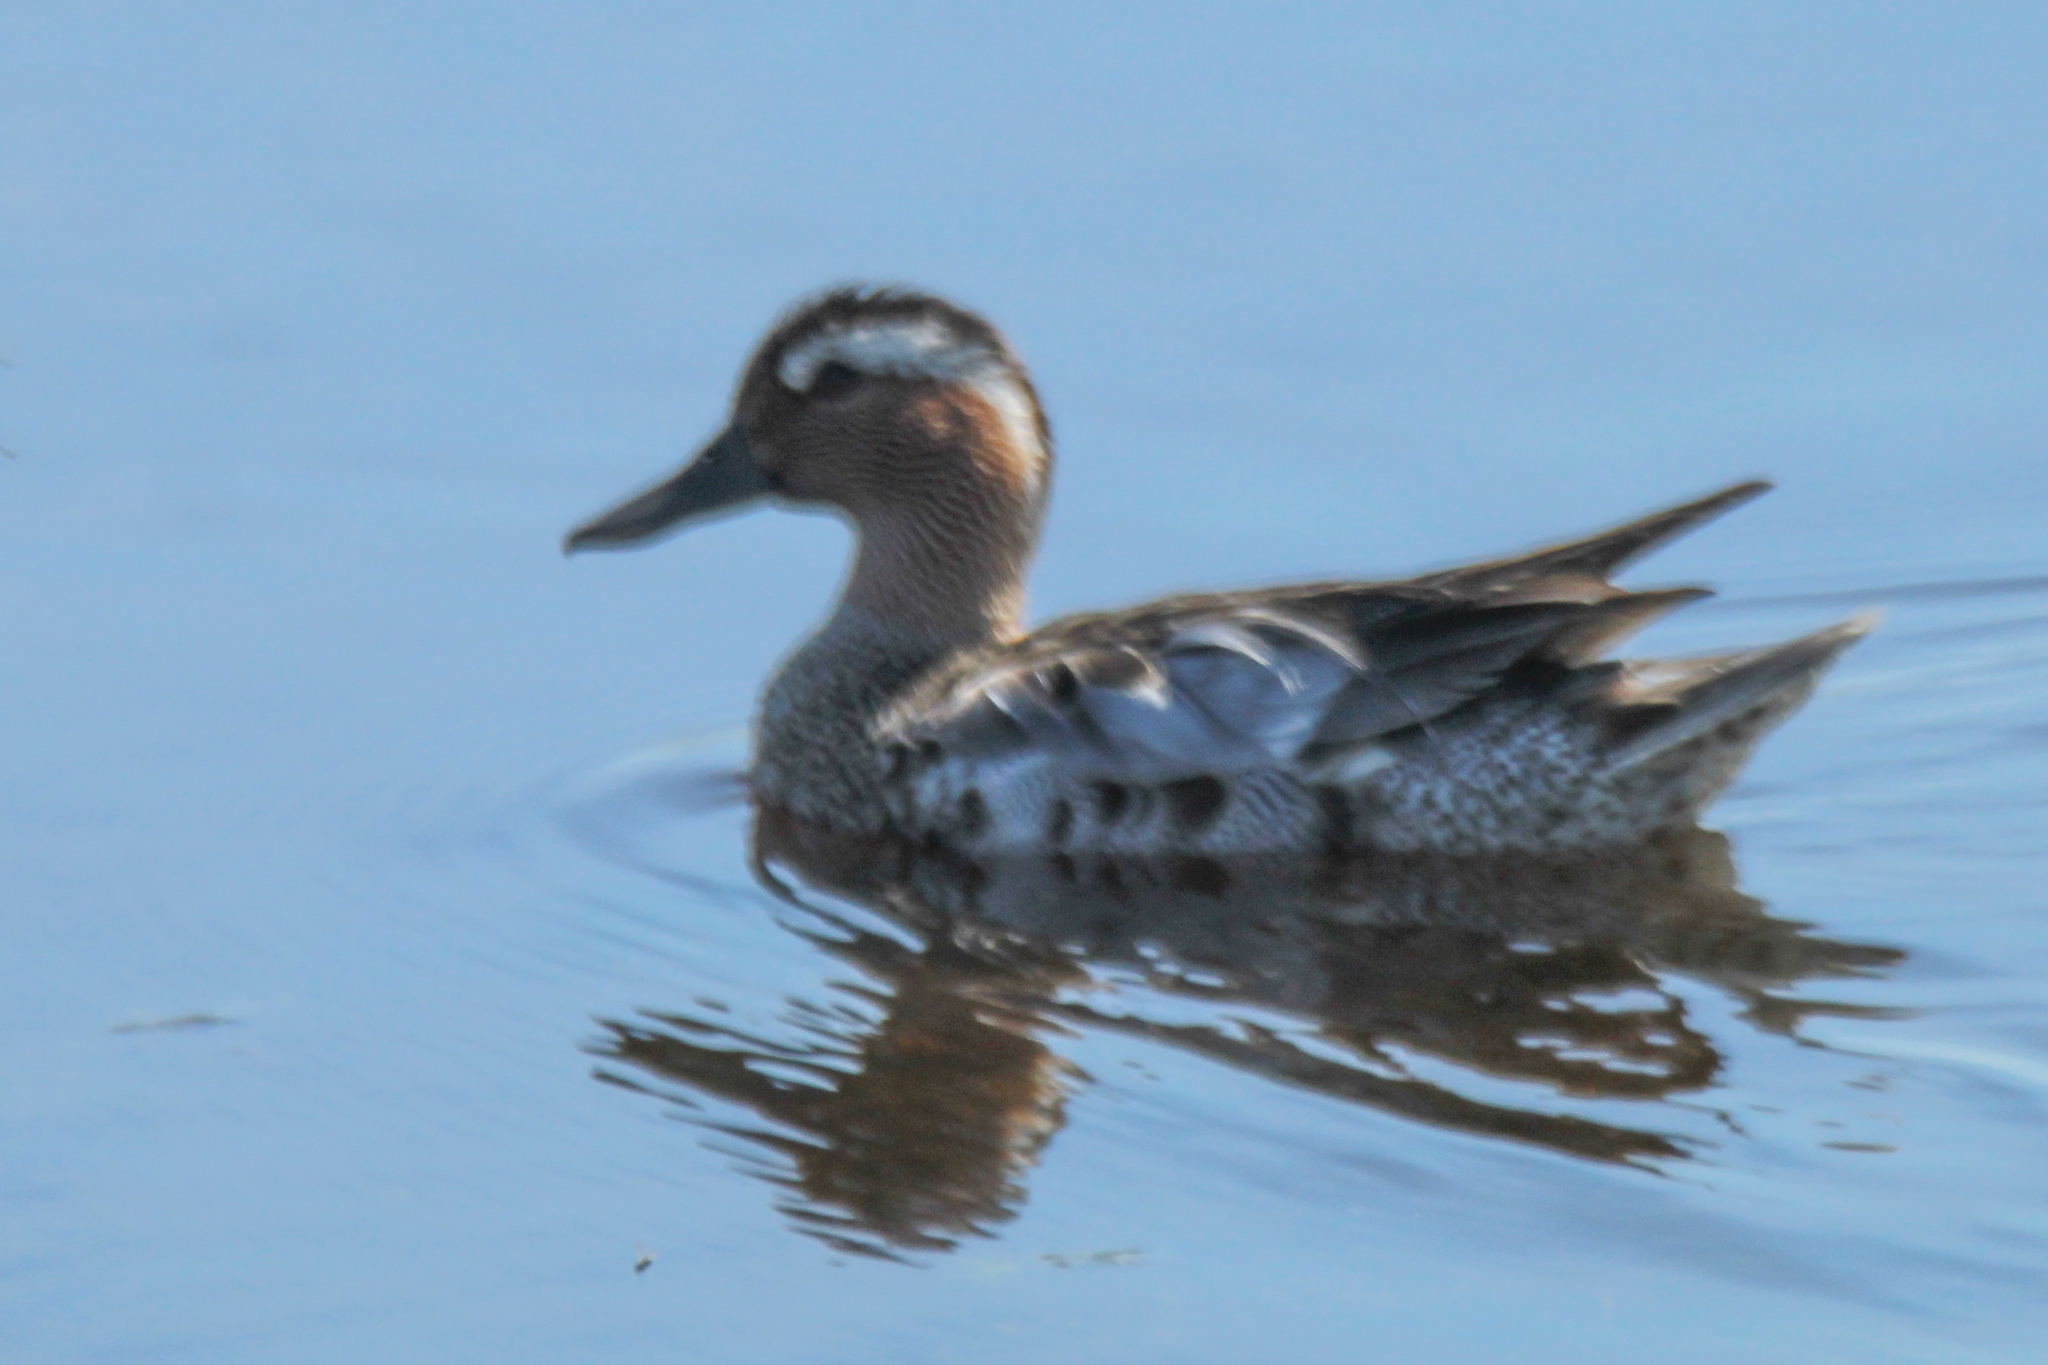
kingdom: Animalia
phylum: Chordata
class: Aves
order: Anseriformes
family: Anatidae
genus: Spatula
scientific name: Spatula querquedula
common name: Garganey
